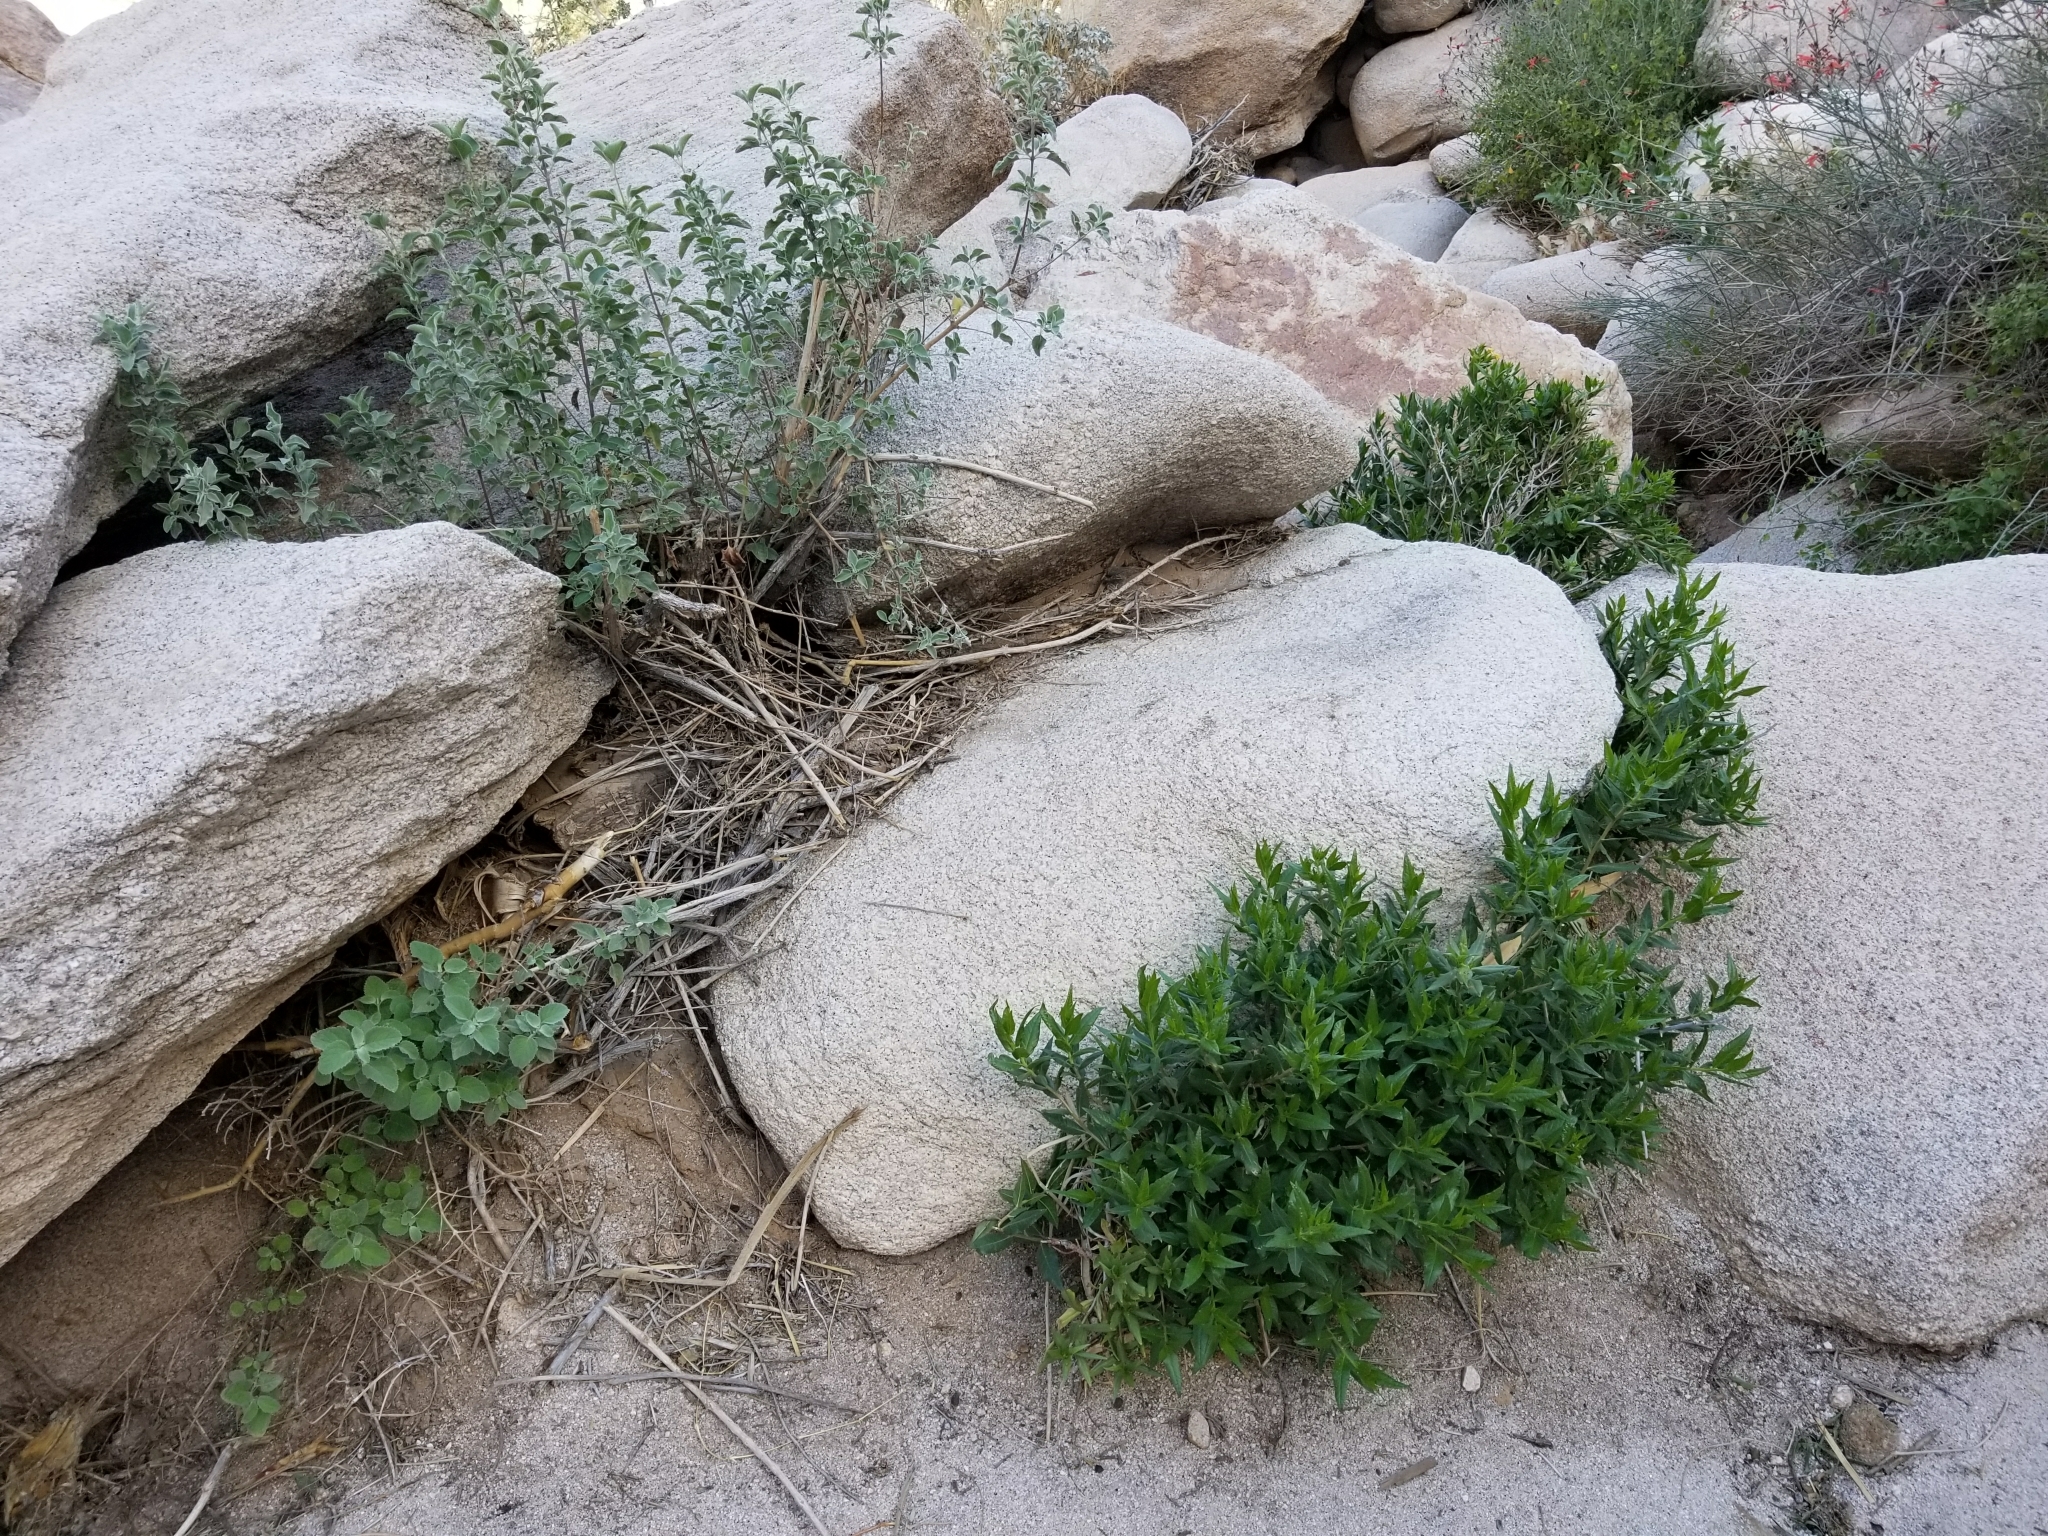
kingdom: Plantae
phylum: Tracheophyta
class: Magnoliopsida
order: Asterales
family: Asteraceae
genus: Trixis
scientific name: Trixis californica
